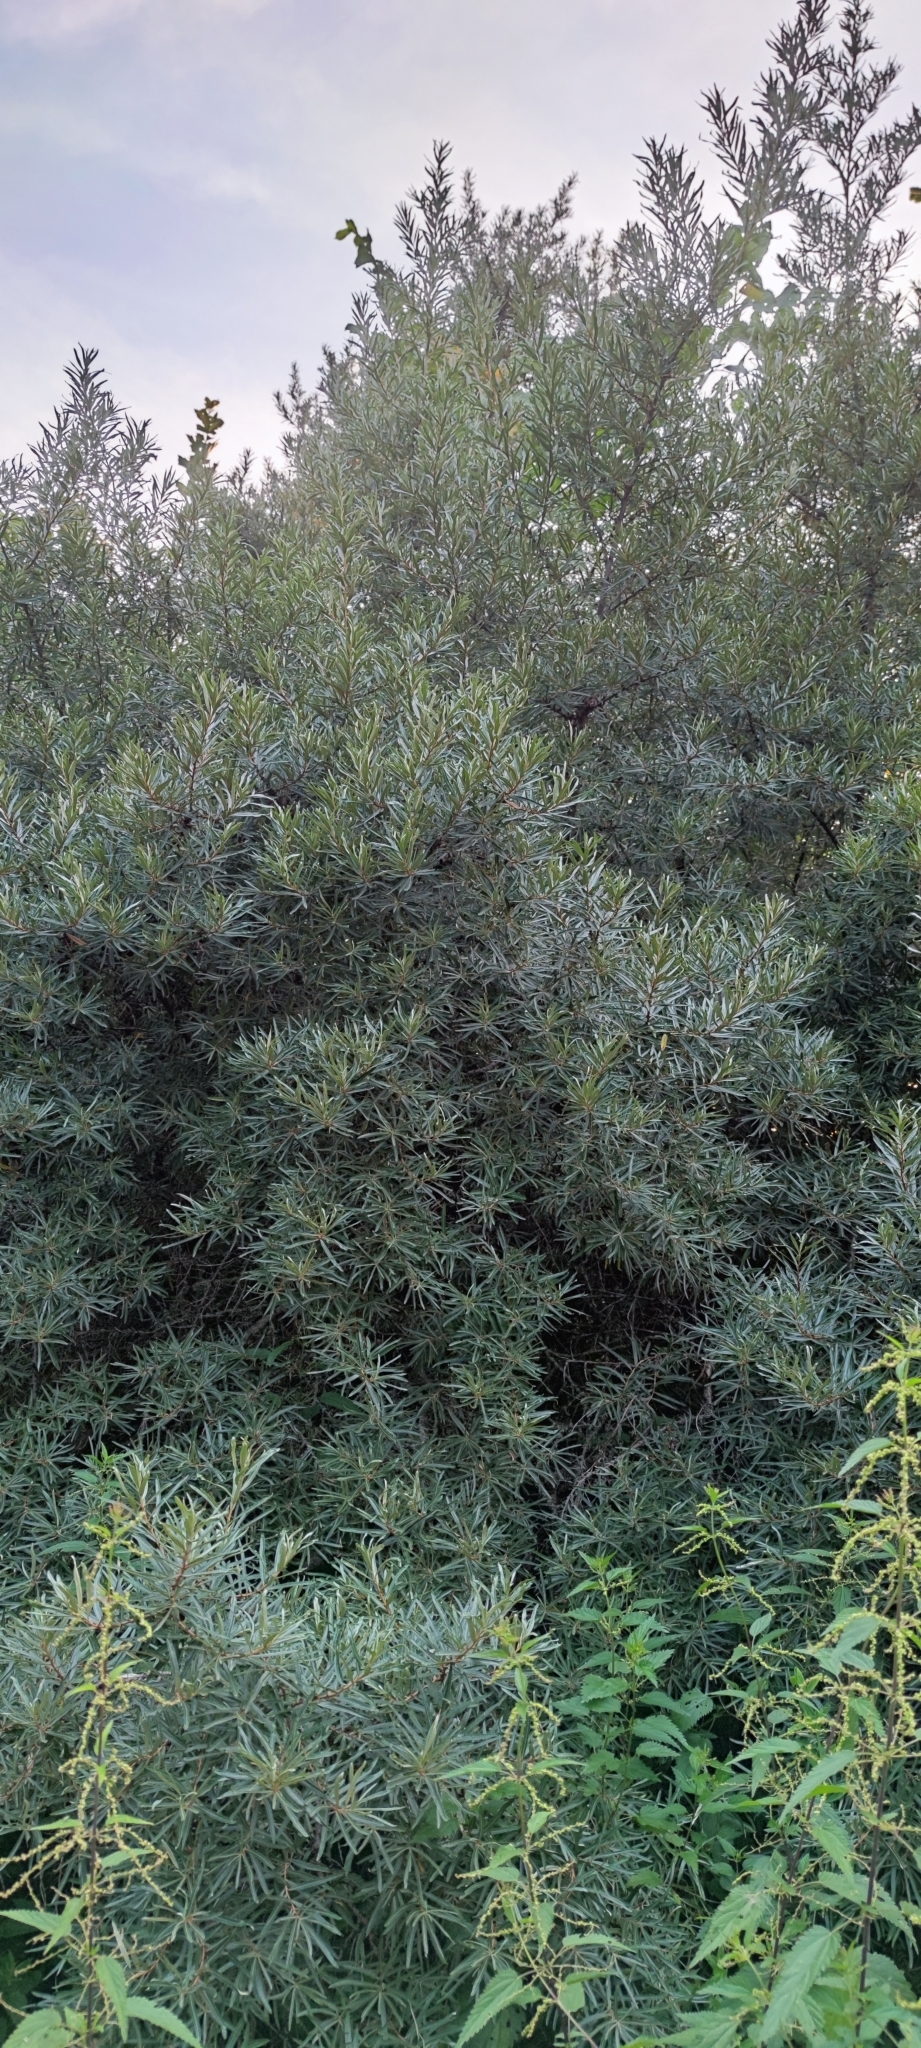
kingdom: Plantae
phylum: Tracheophyta
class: Magnoliopsida
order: Rosales
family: Elaeagnaceae
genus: Hippophae
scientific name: Hippophae rhamnoides
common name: Sea-buckthorn
